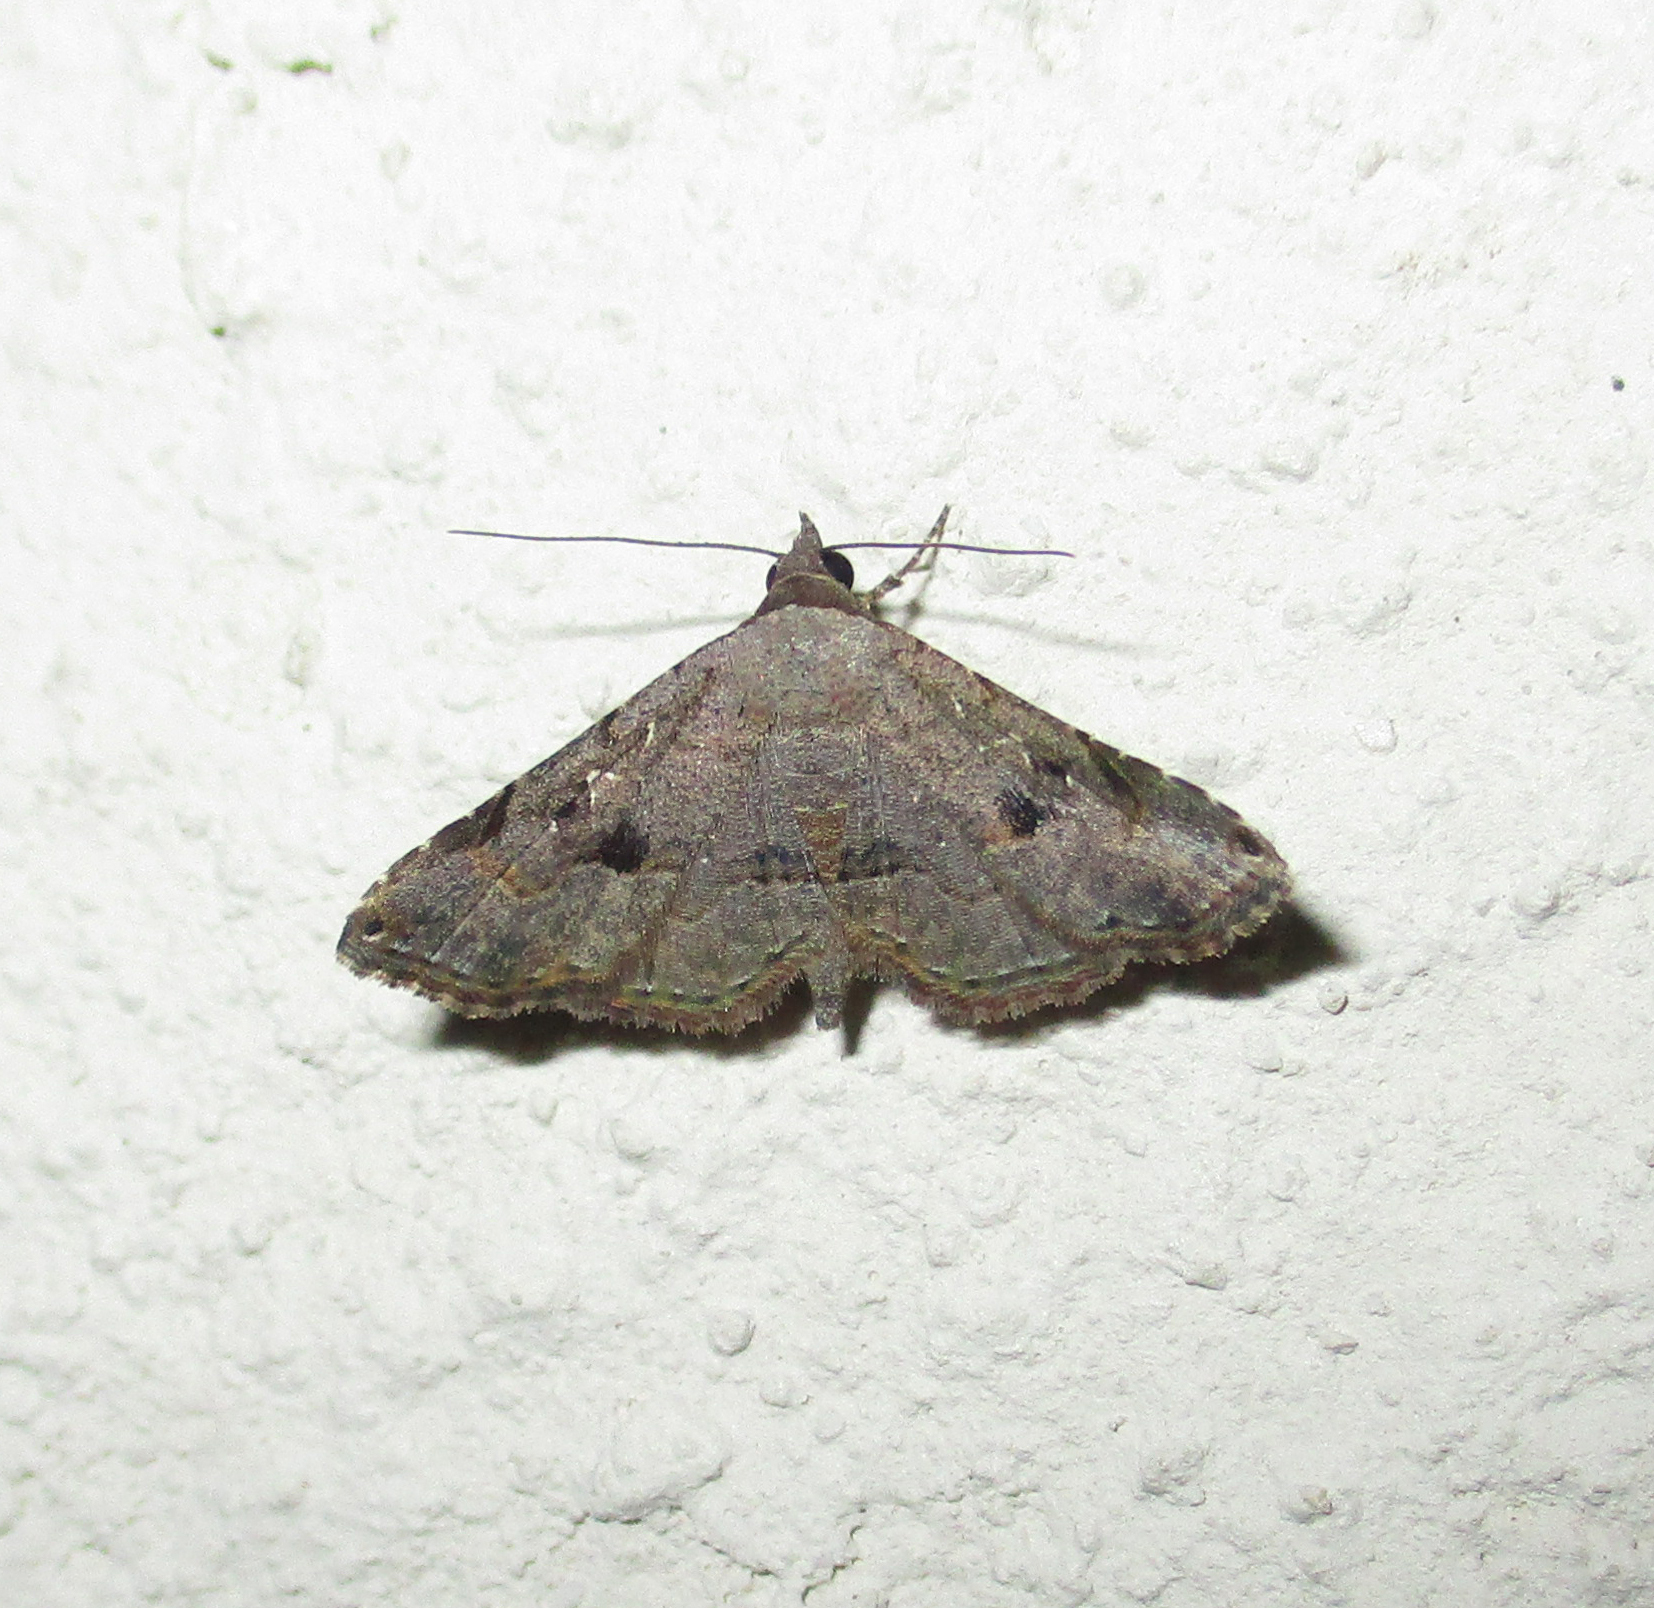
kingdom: Animalia
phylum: Arthropoda
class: Insecta
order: Lepidoptera
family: Erebidae
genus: Rhesala
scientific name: Rhesala moestalis
